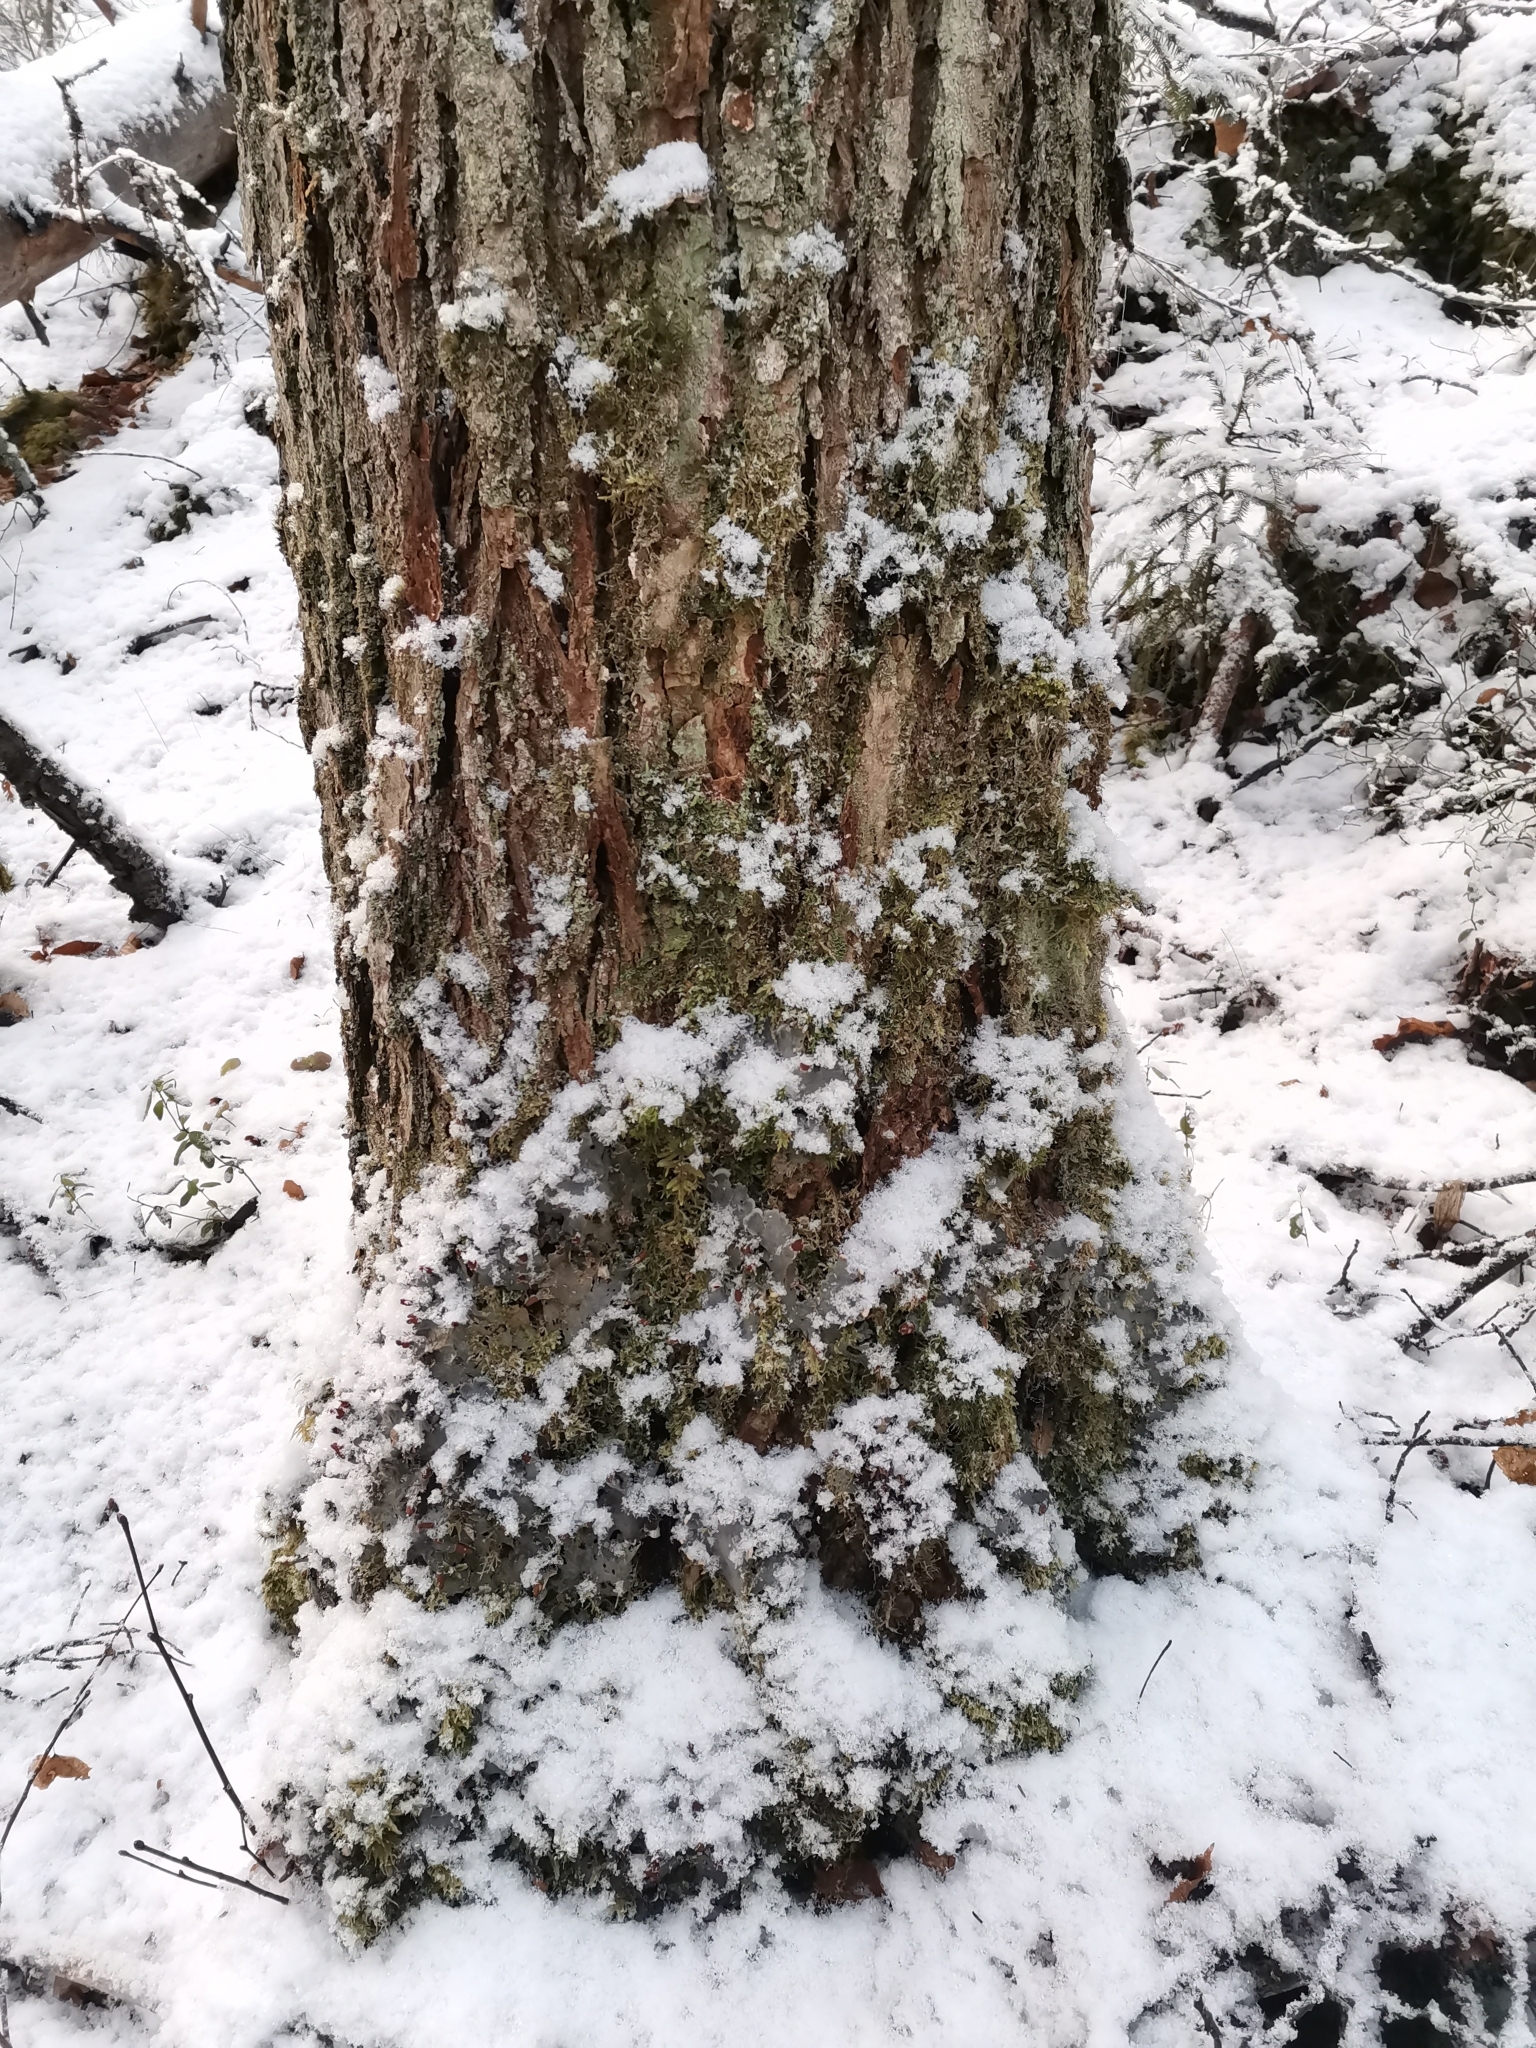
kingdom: Fungi
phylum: Ascomycota
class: Lecanoromycetes
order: Peltigerales
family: Peltigeraceae
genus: Peltigera
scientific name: Peltigera praetextata
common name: Scaly dog-lichen
